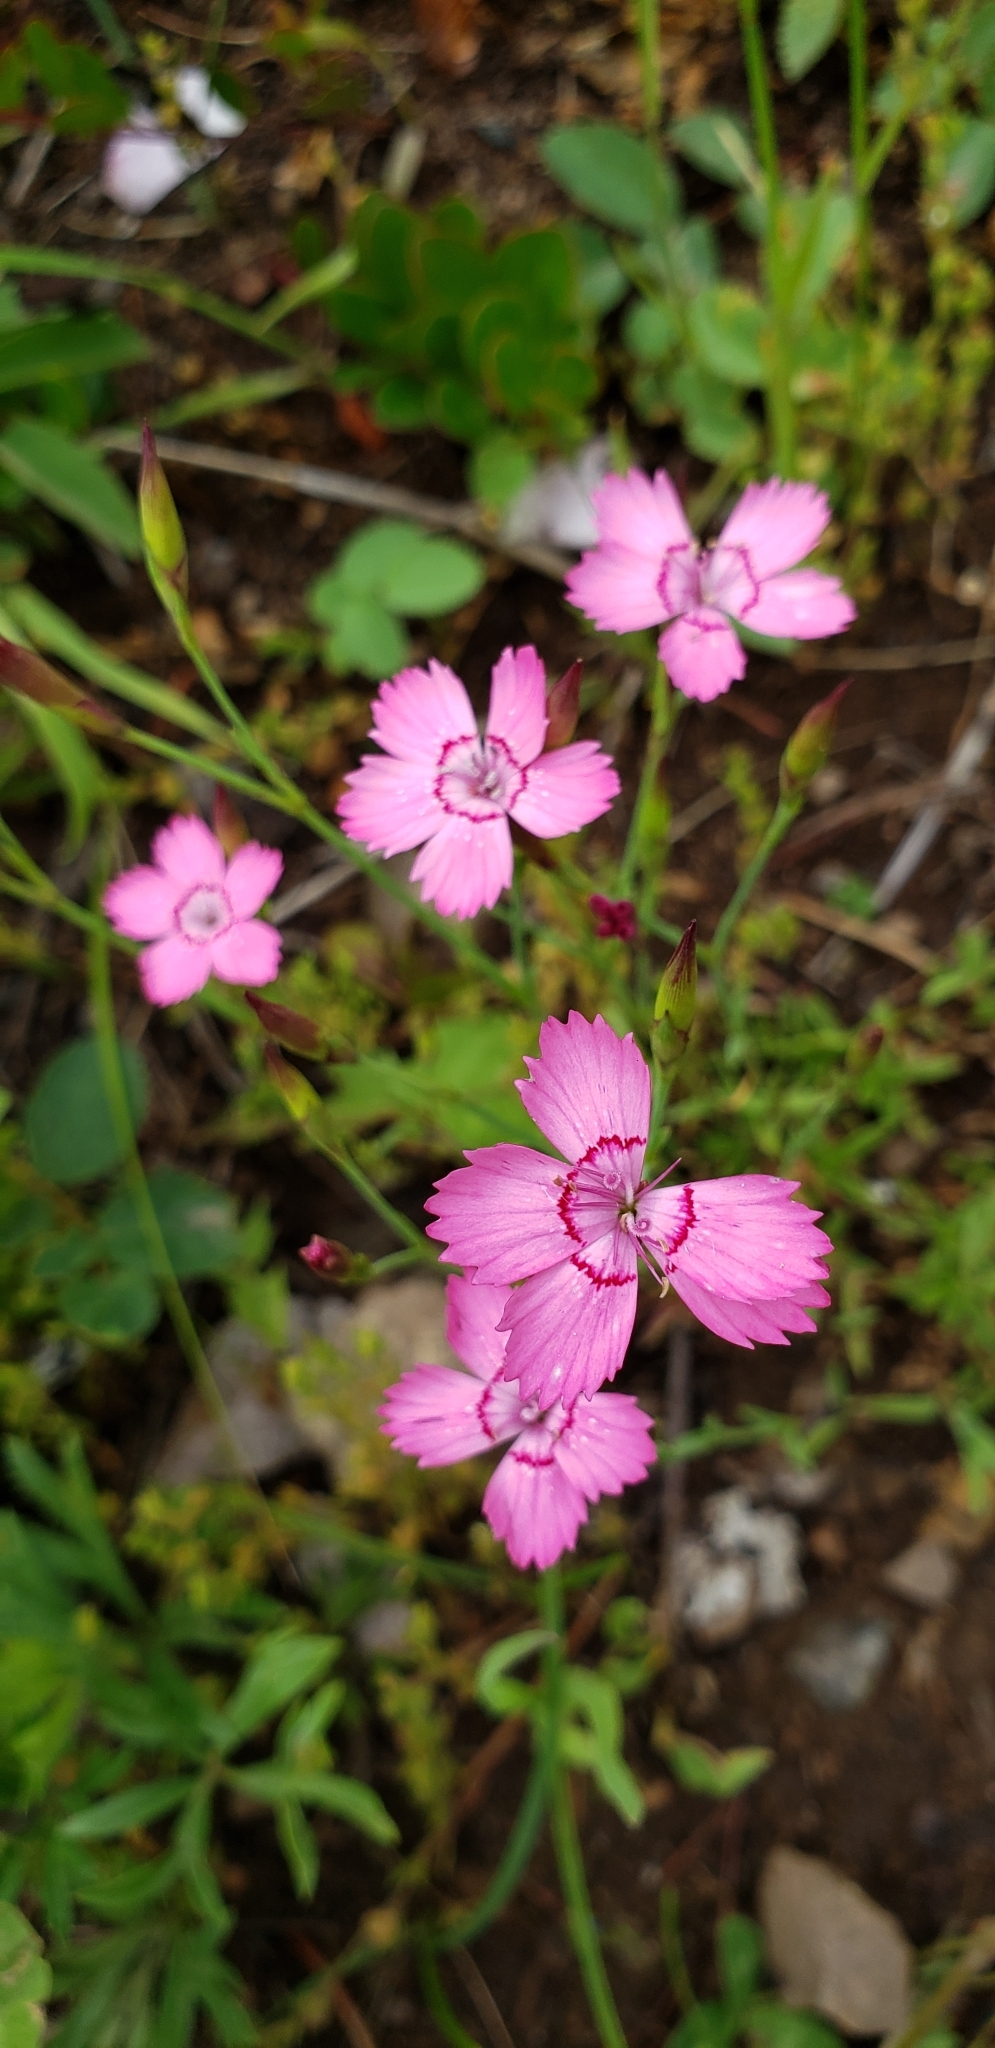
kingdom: Plantae
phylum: Tracheophyta
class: Magnoliopsida
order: Caryophyllales
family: Caryophyllaceae
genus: Dianthus
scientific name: Dianthus deltoides
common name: Maiden pink
